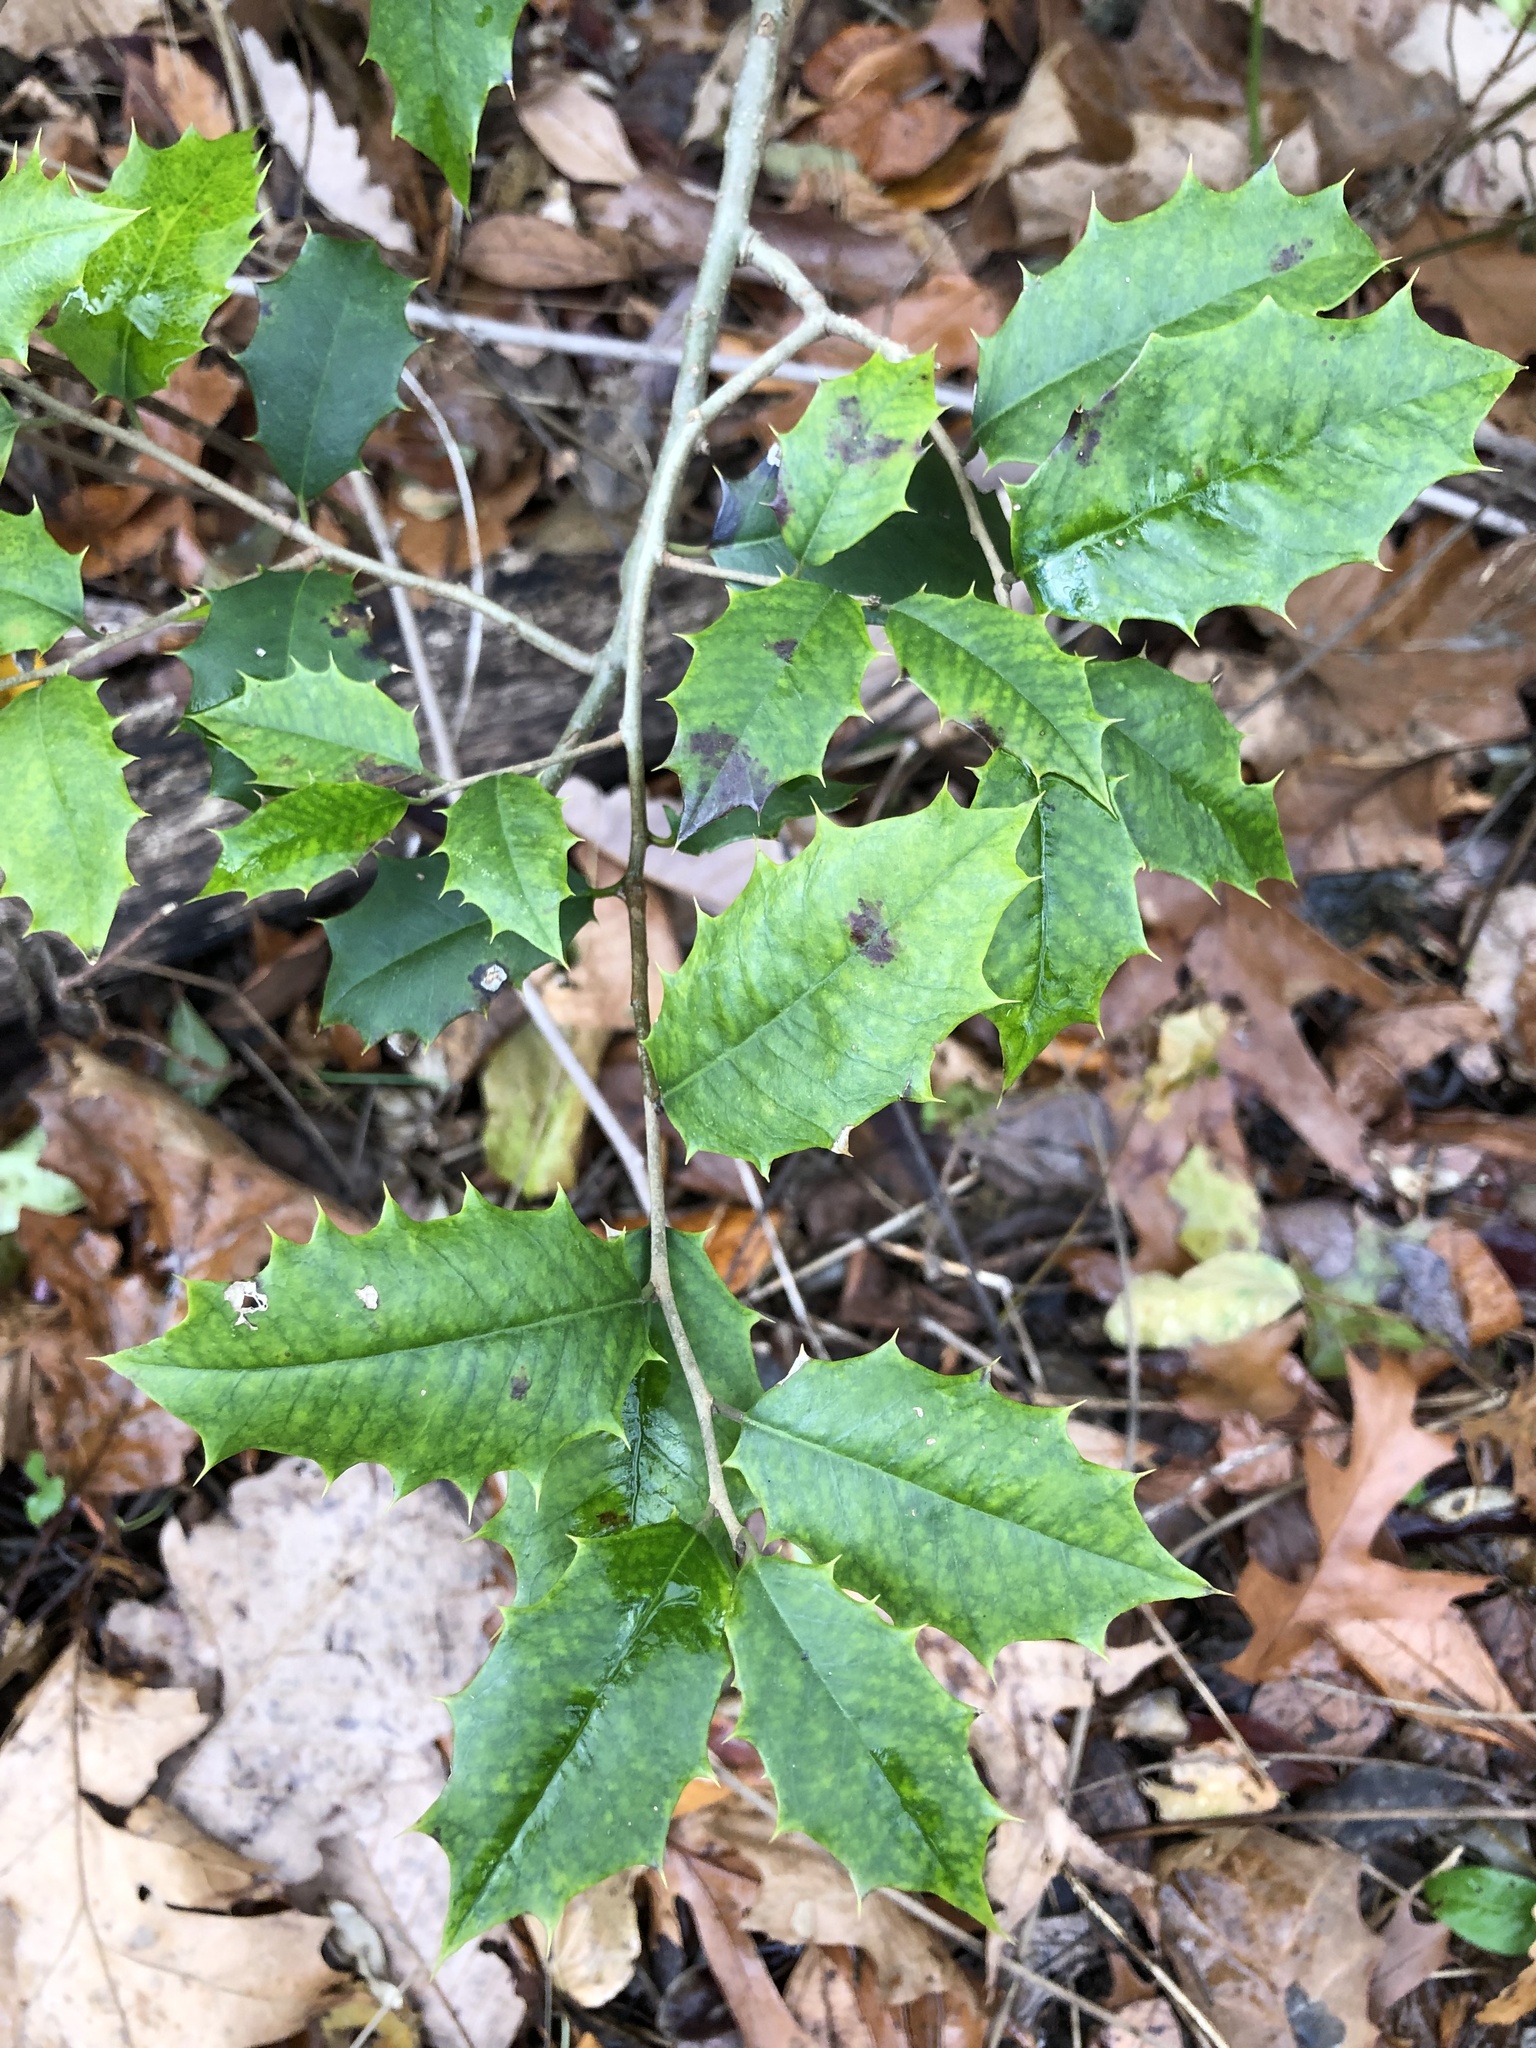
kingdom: Plantae
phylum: Tracheophyta
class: Magnoliopsida
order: Aquifoliales
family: Aquifoliaceae
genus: Ilex
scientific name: Ilex opaca
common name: American holly
